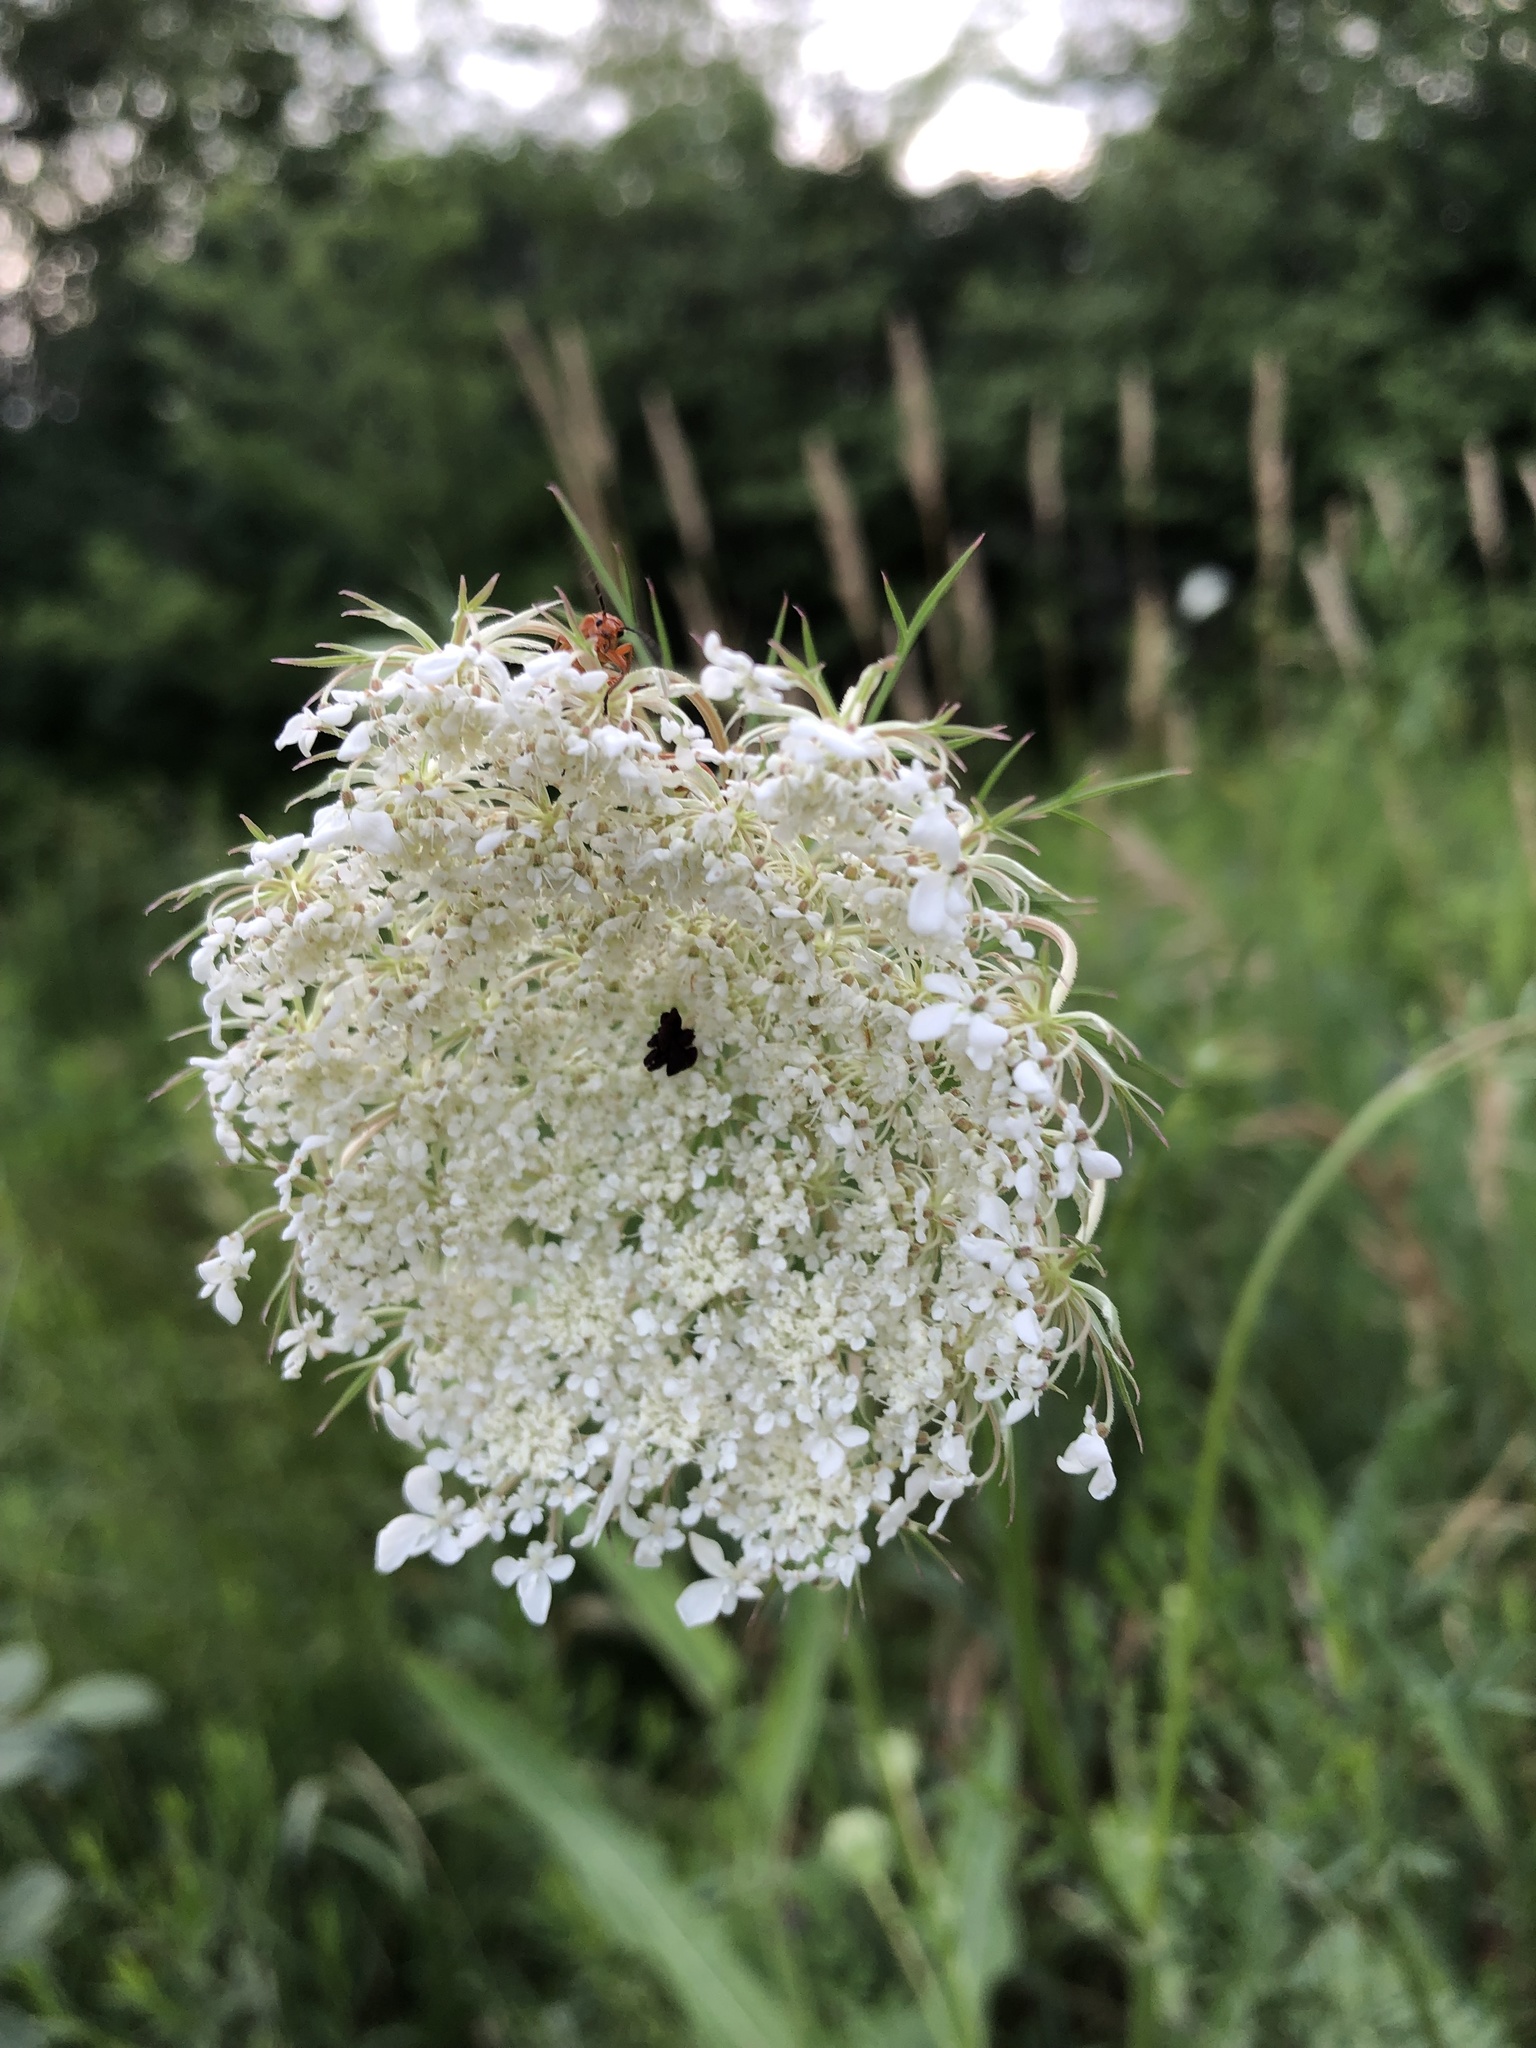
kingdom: Plantae
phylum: Tracheophyta
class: Magnoliopsida
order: Apiales
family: Apiaceae
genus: Daucus
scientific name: Daucus carota
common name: Wild carrot
